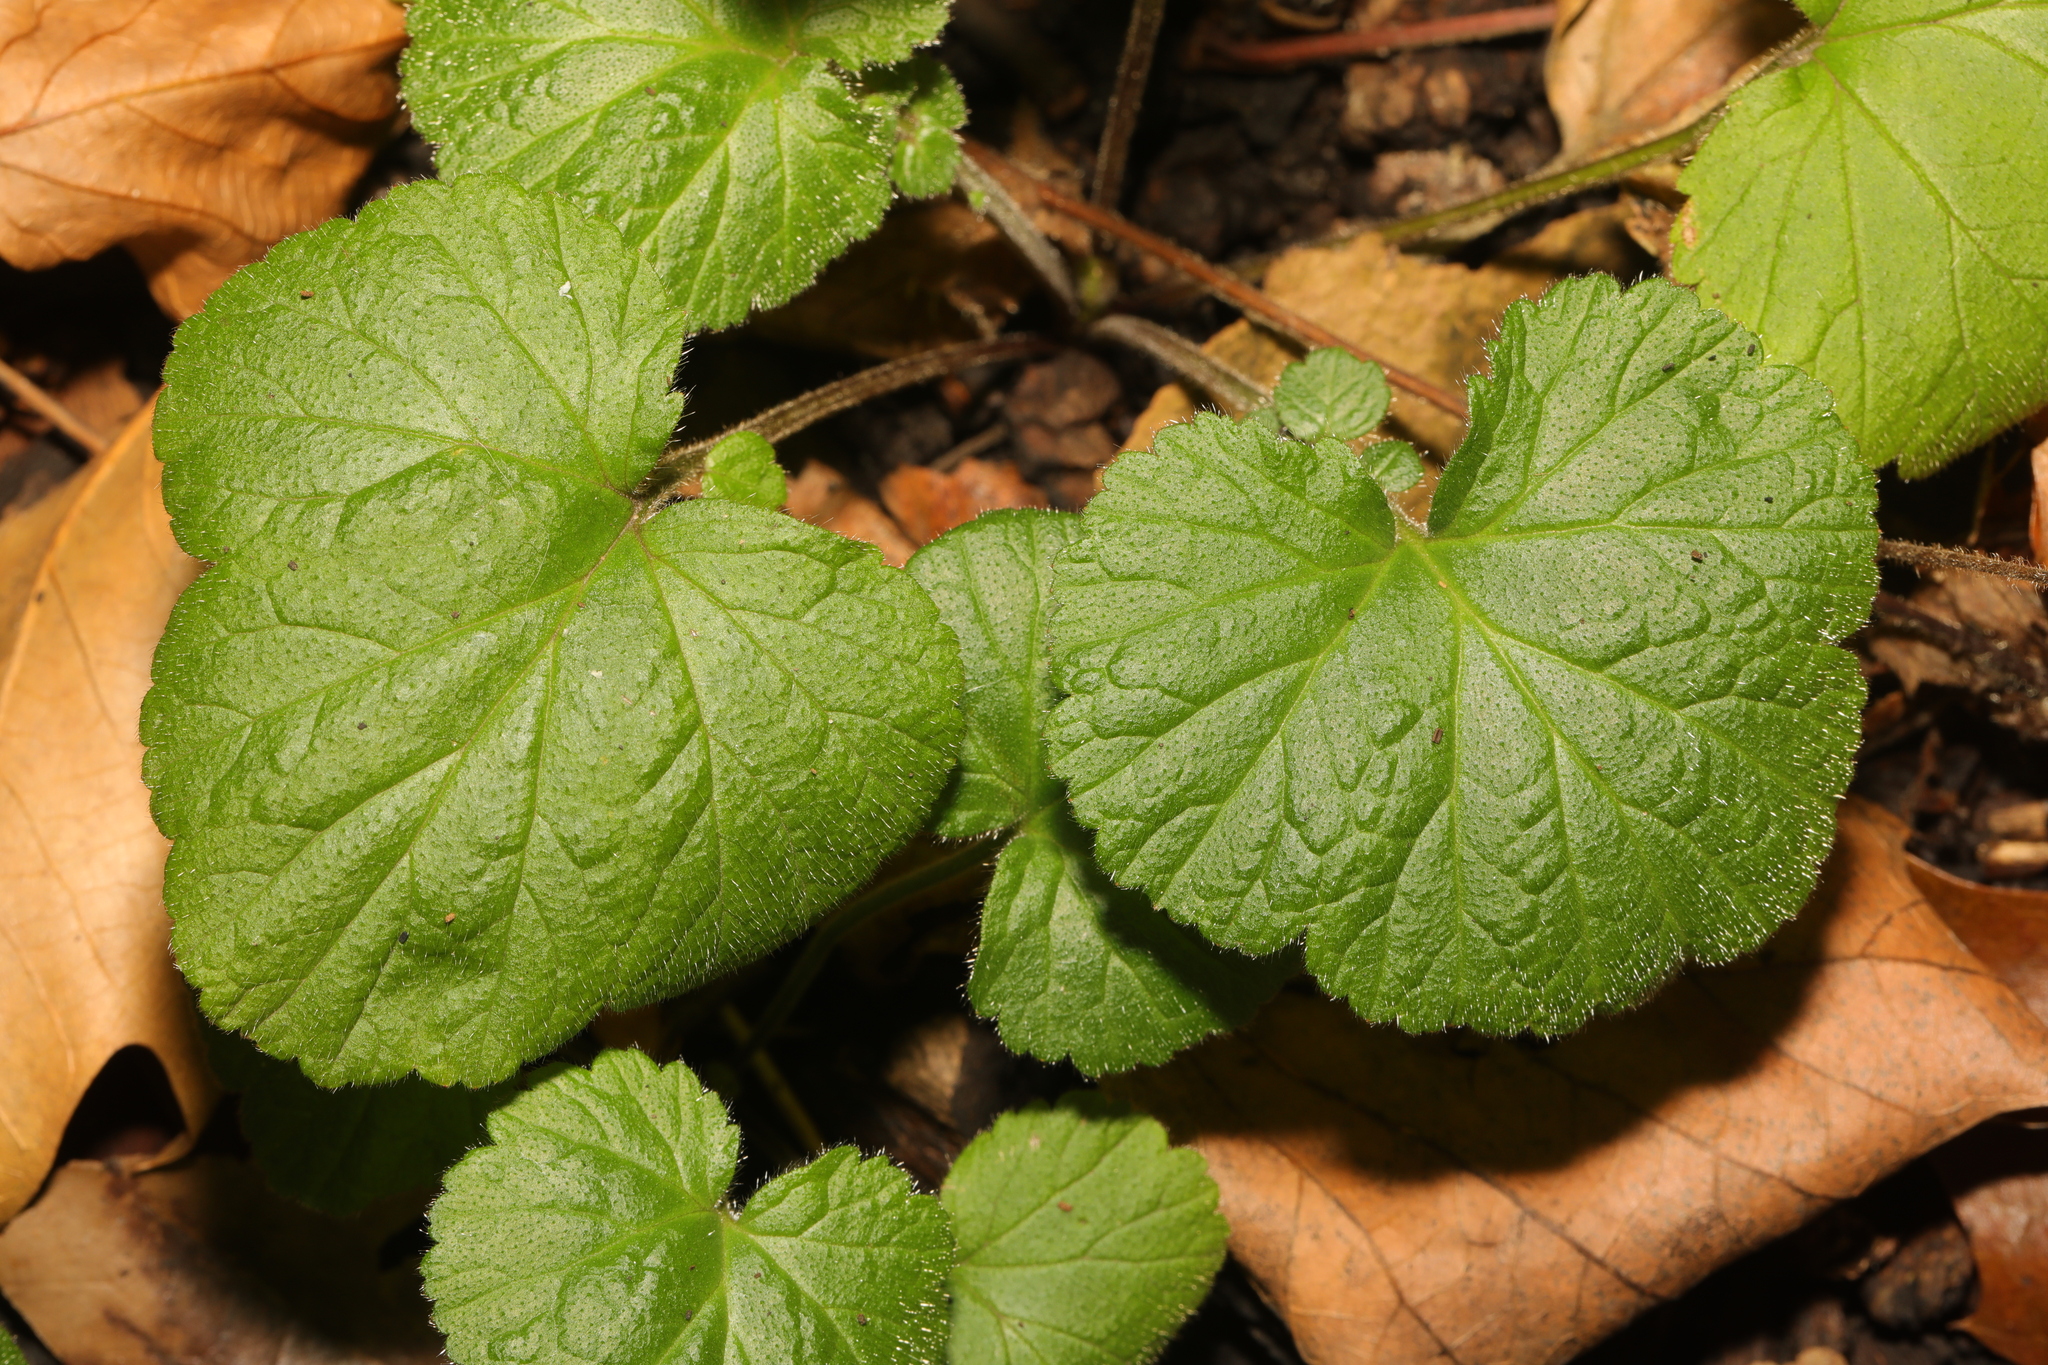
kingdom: Plantae
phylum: Tracheophyta
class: Magnoliopsida
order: Rosales
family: Rosaceae
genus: Geum
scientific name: Geum urbanum
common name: Wood avens
